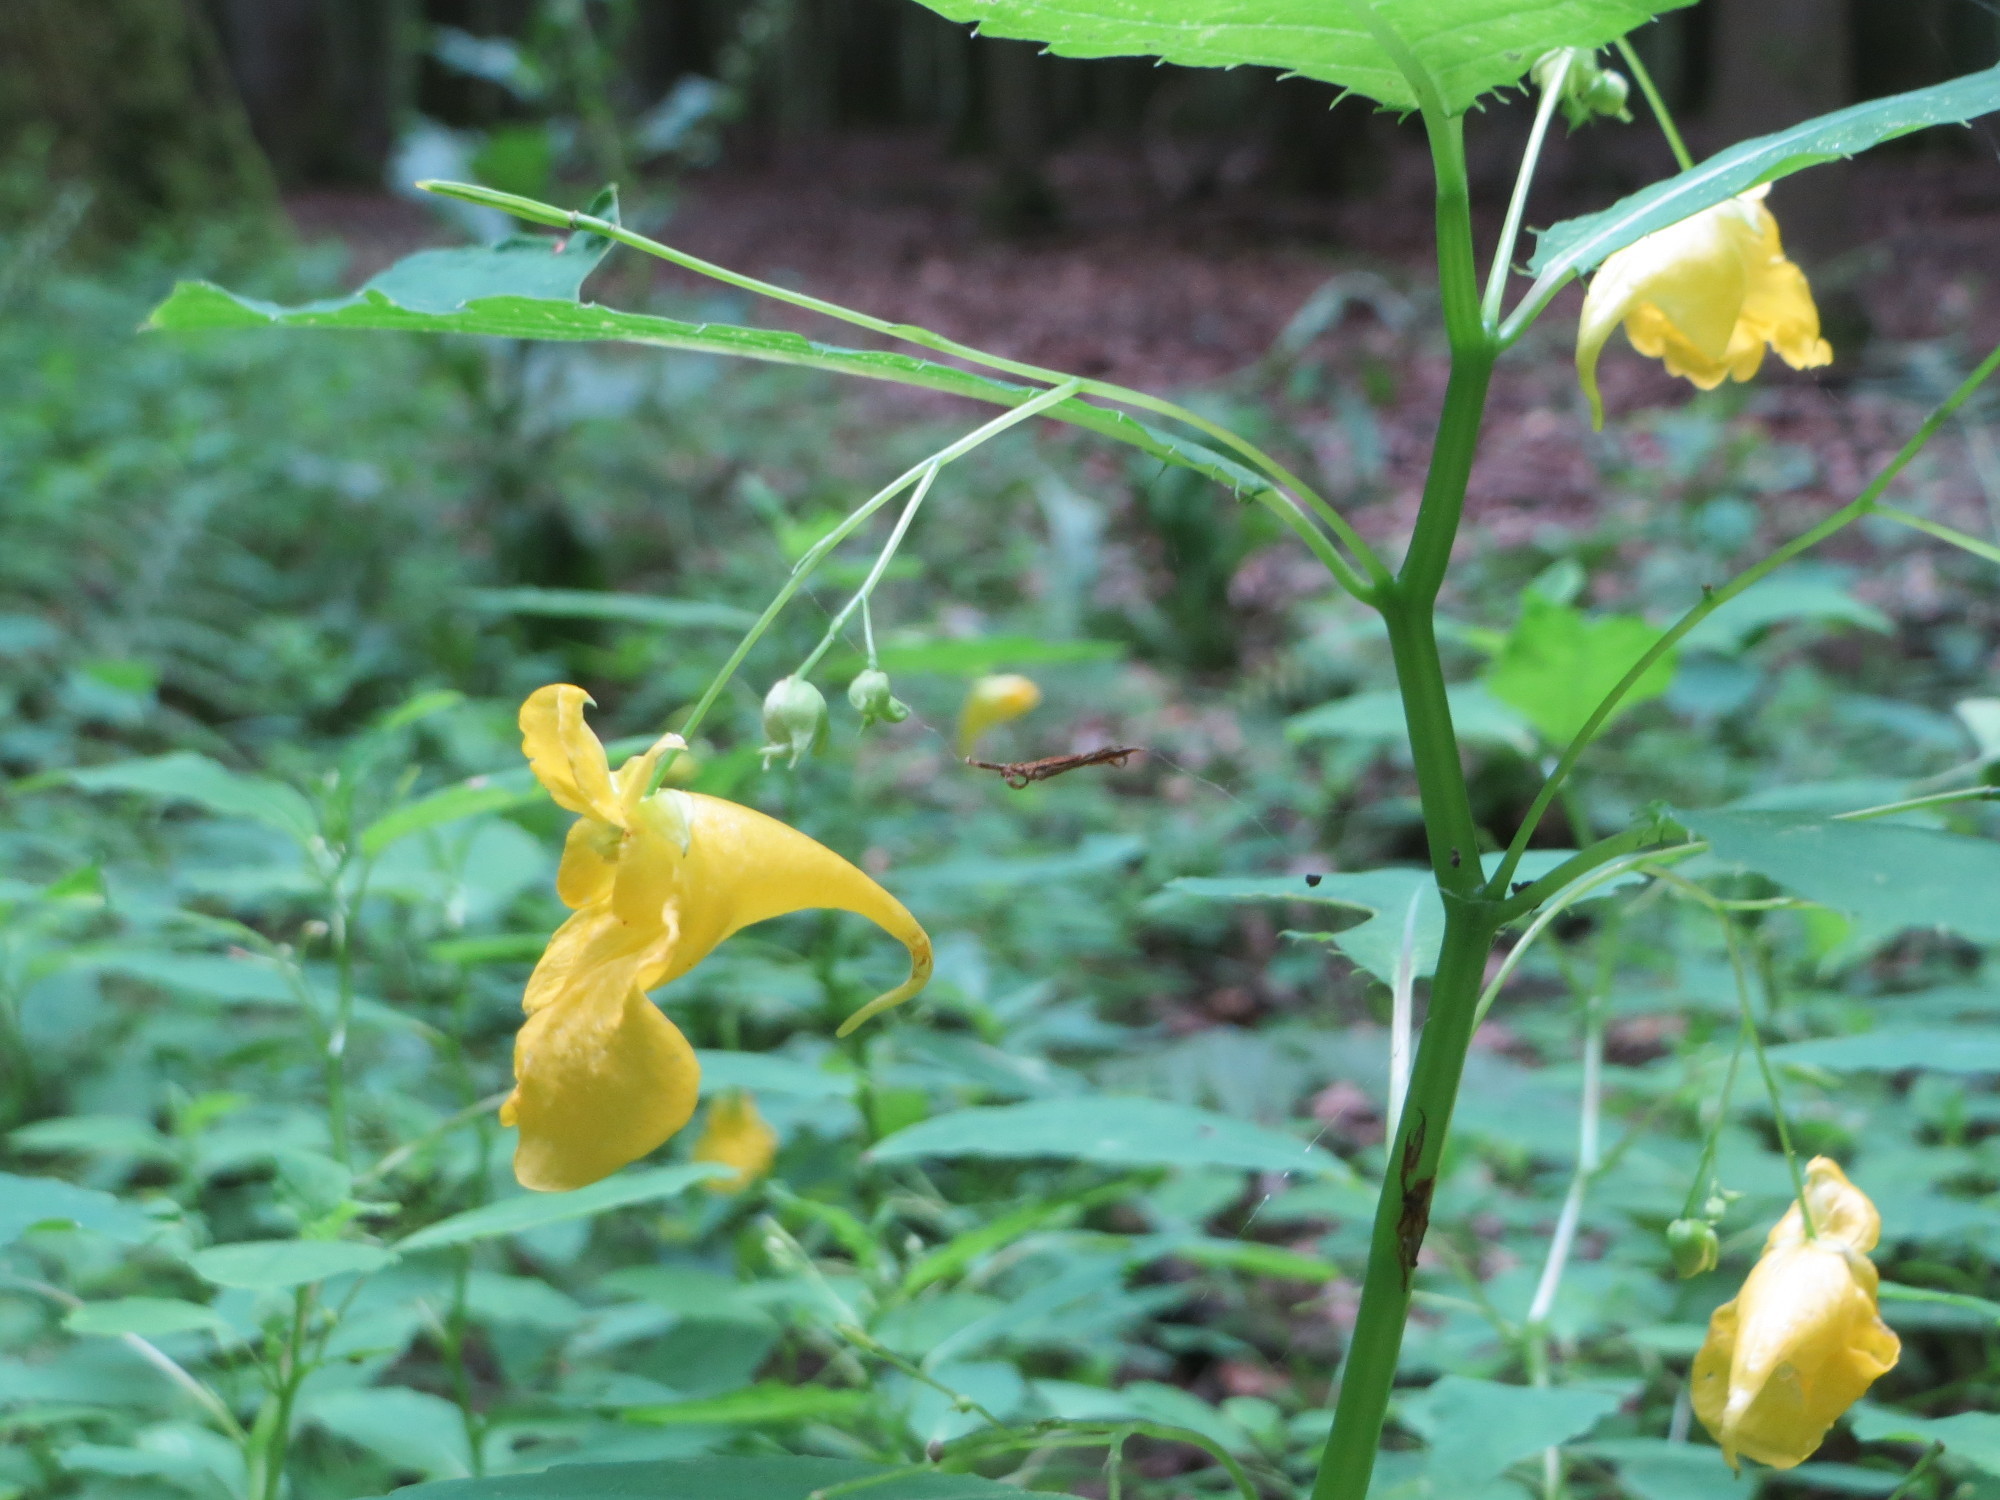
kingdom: Plantae
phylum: Tracheophyta
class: Magnoliopsida
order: Ericales
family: Balsaminaceae
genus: Impatiens
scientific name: Impatiens noli-tangere
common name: Touch-me-not balsam
